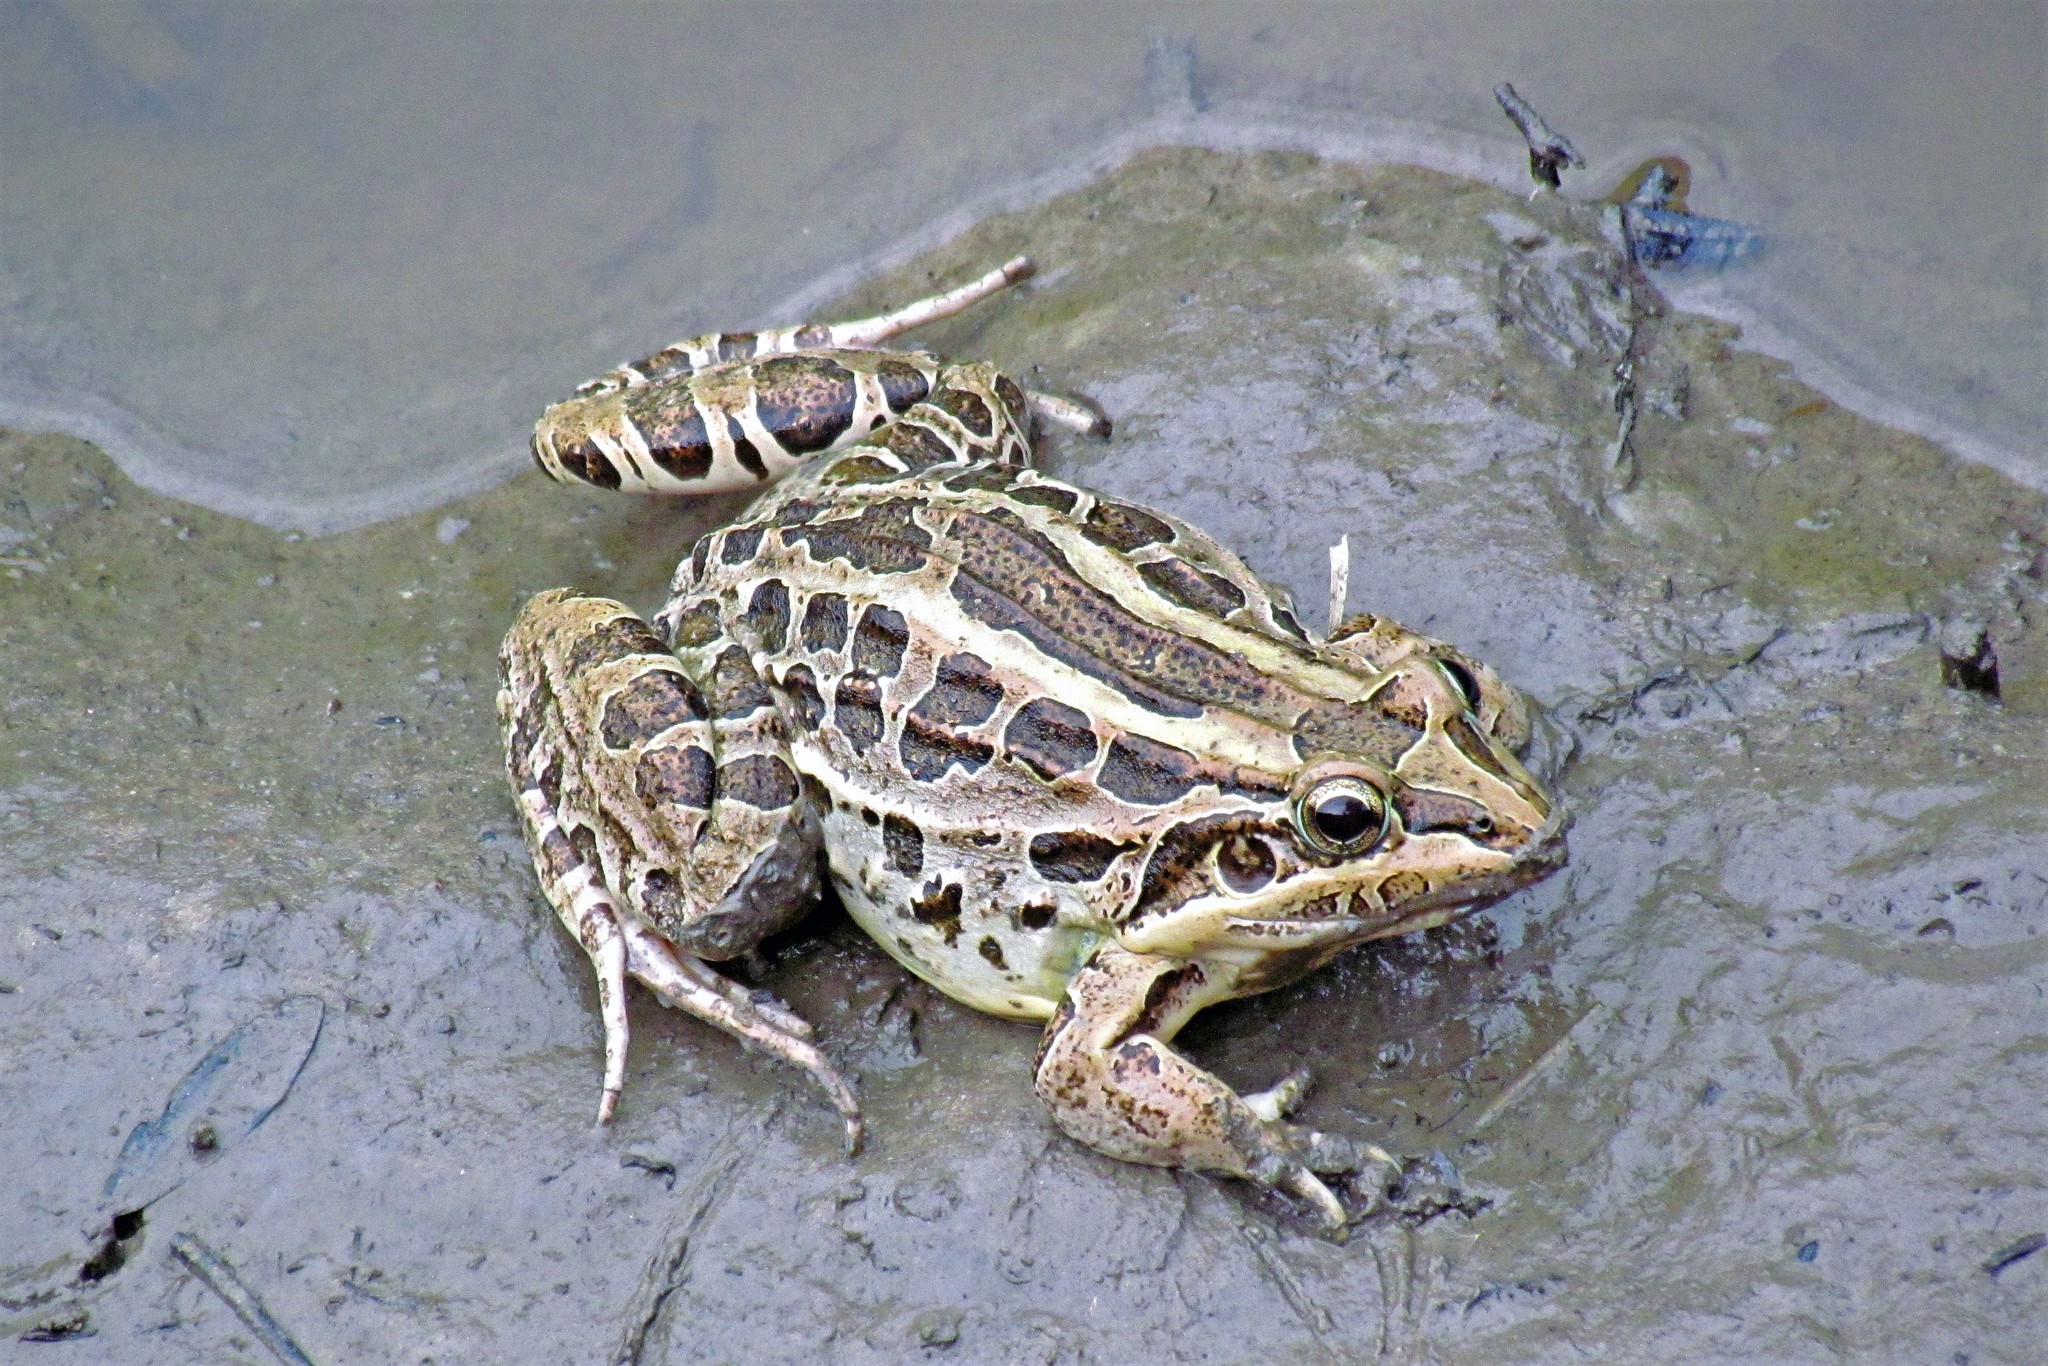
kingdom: Animalia
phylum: Chordata
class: Amphibia
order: Anura
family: Leptodactylidae
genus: Leptodactylus
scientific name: Leptodactylus luctator
